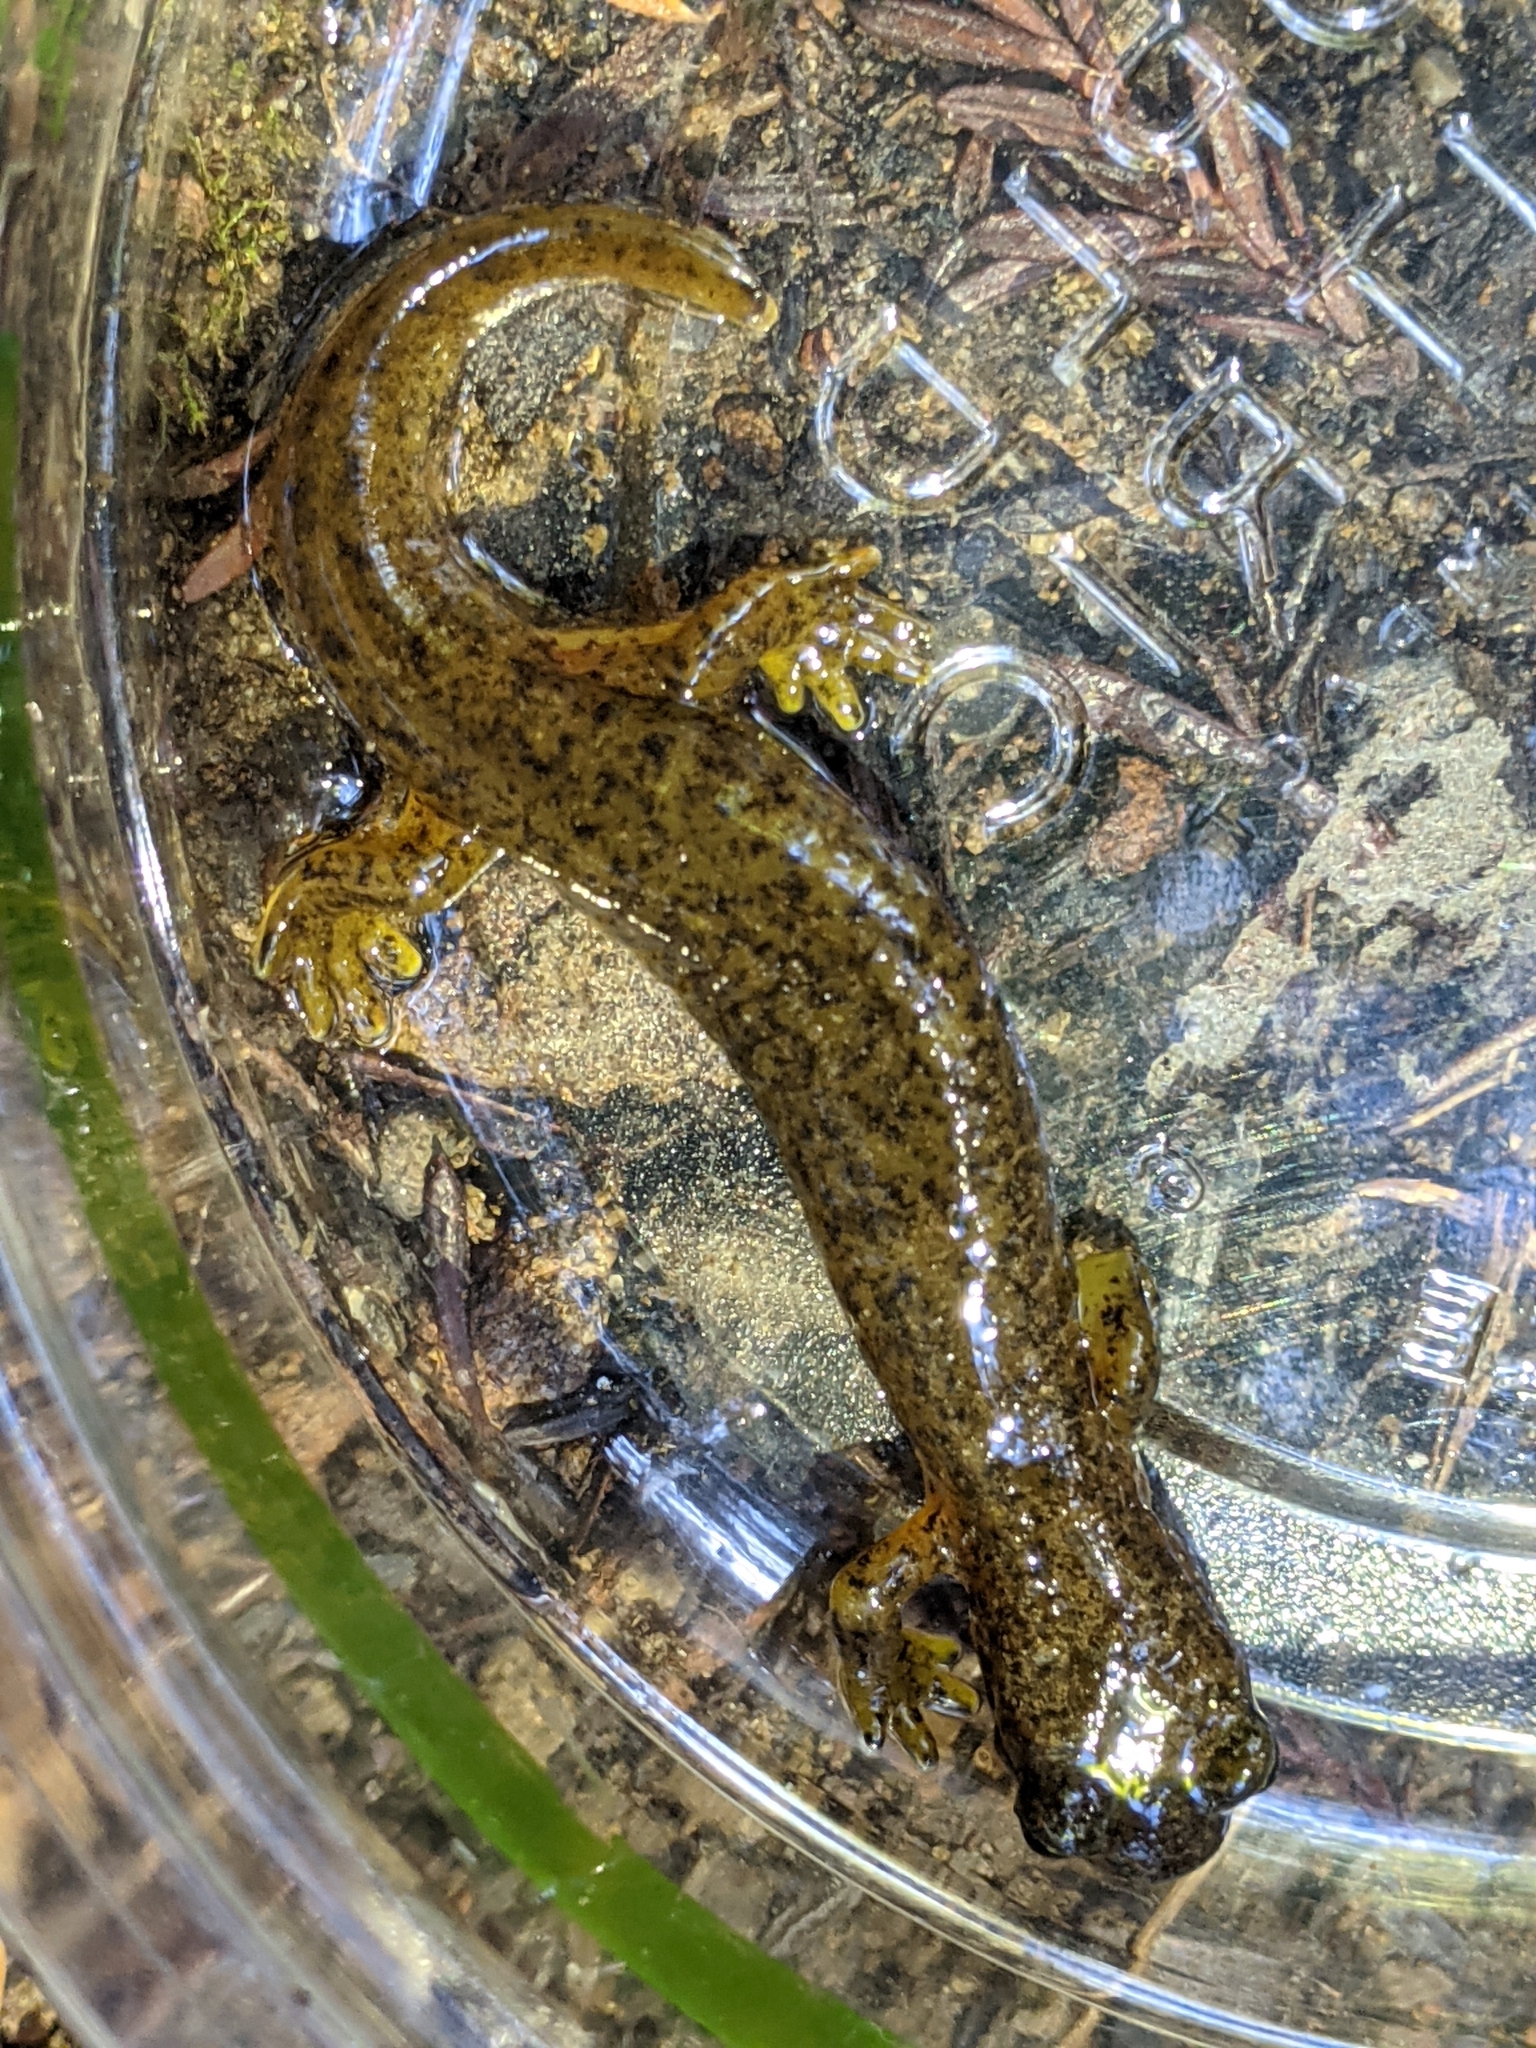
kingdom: Animalia
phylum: Chordata
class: Amphibia
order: Caudata
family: Rhyacotritonidae
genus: Rhyacotriton
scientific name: Rhyacotriton variegatus
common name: Southern torrent salamander
